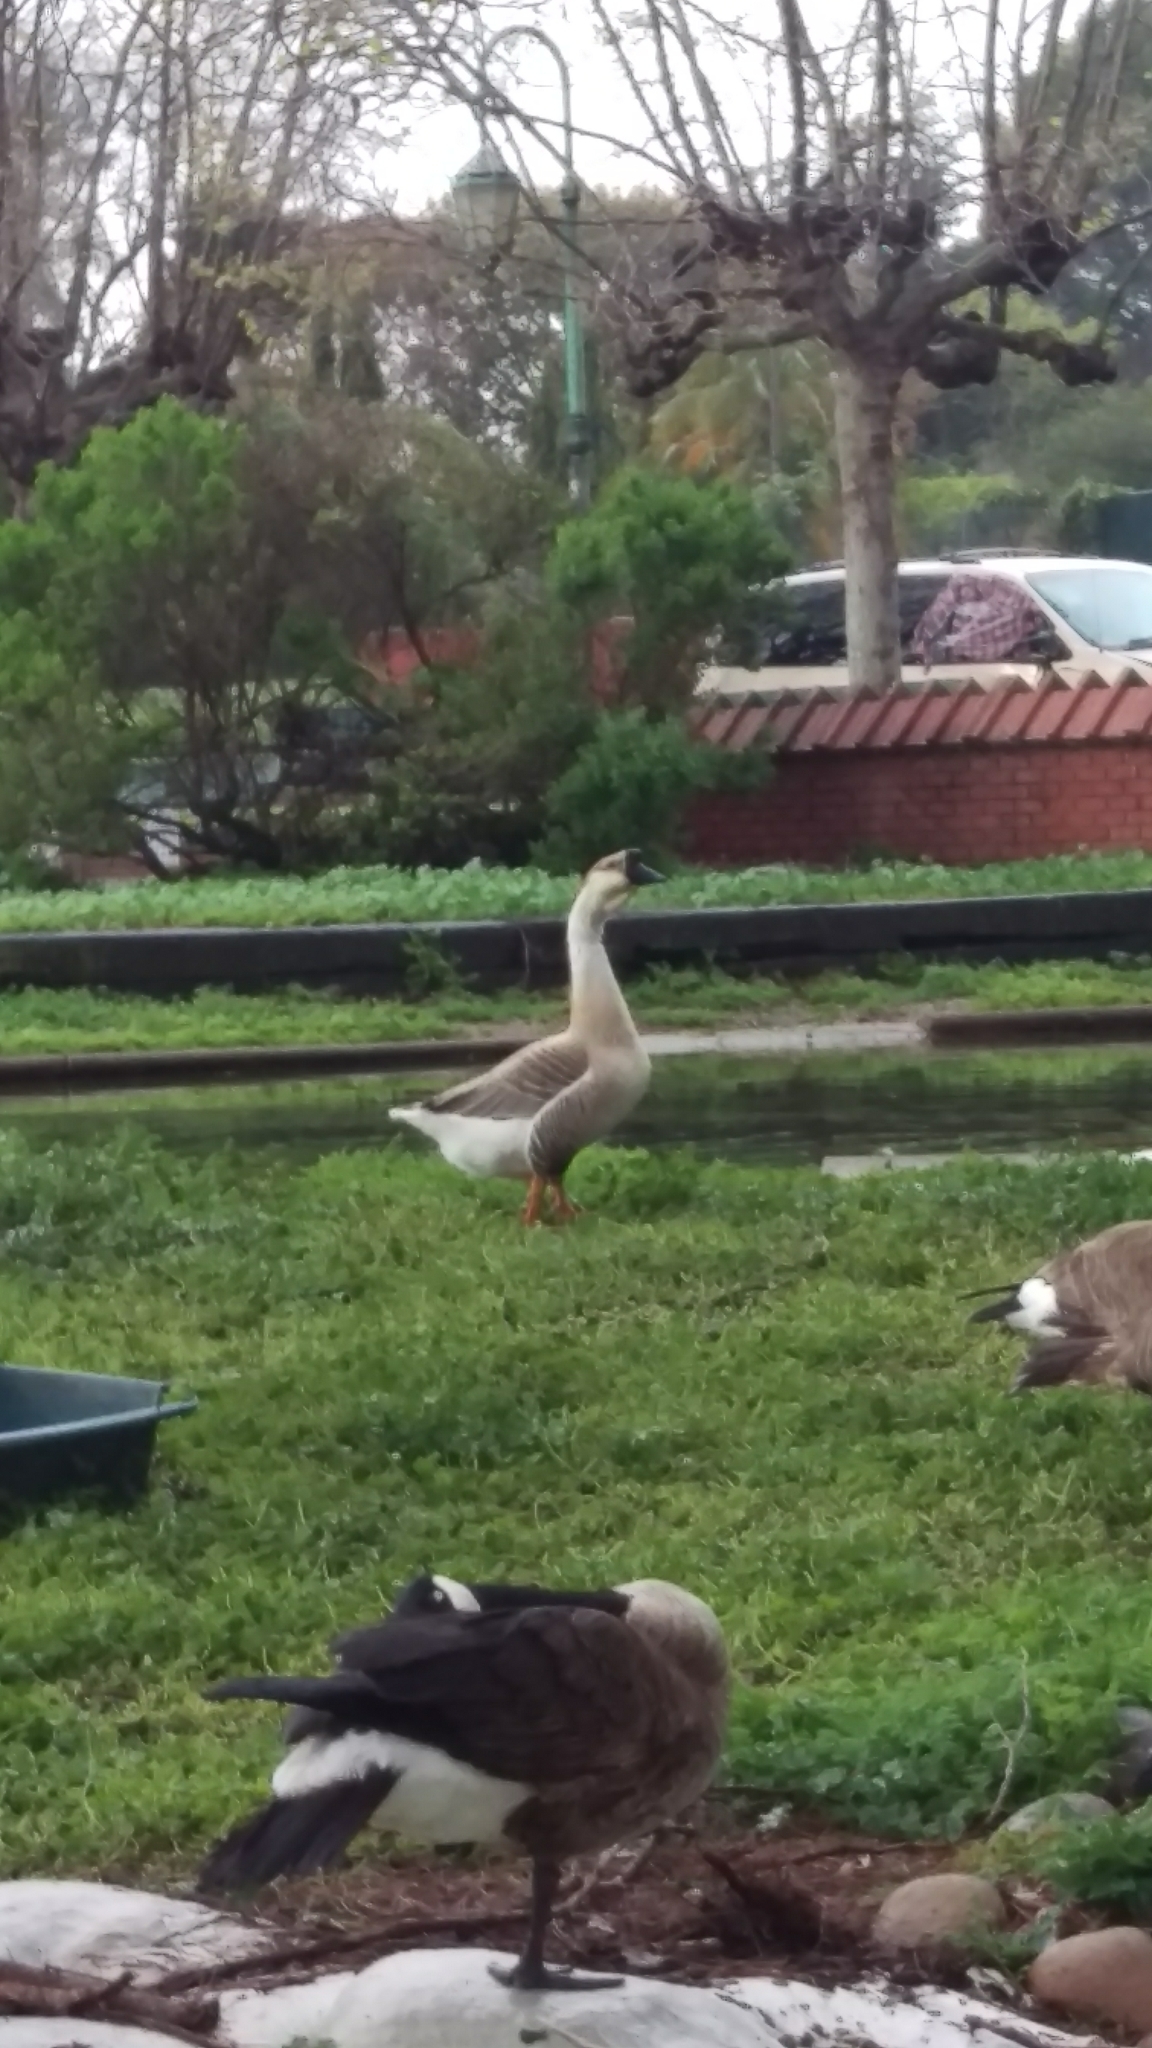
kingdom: Animalia
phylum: Chordata
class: Aves
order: Anseriformes
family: Anatidae
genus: Anser
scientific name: Anser cygnoides
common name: Swan goose
